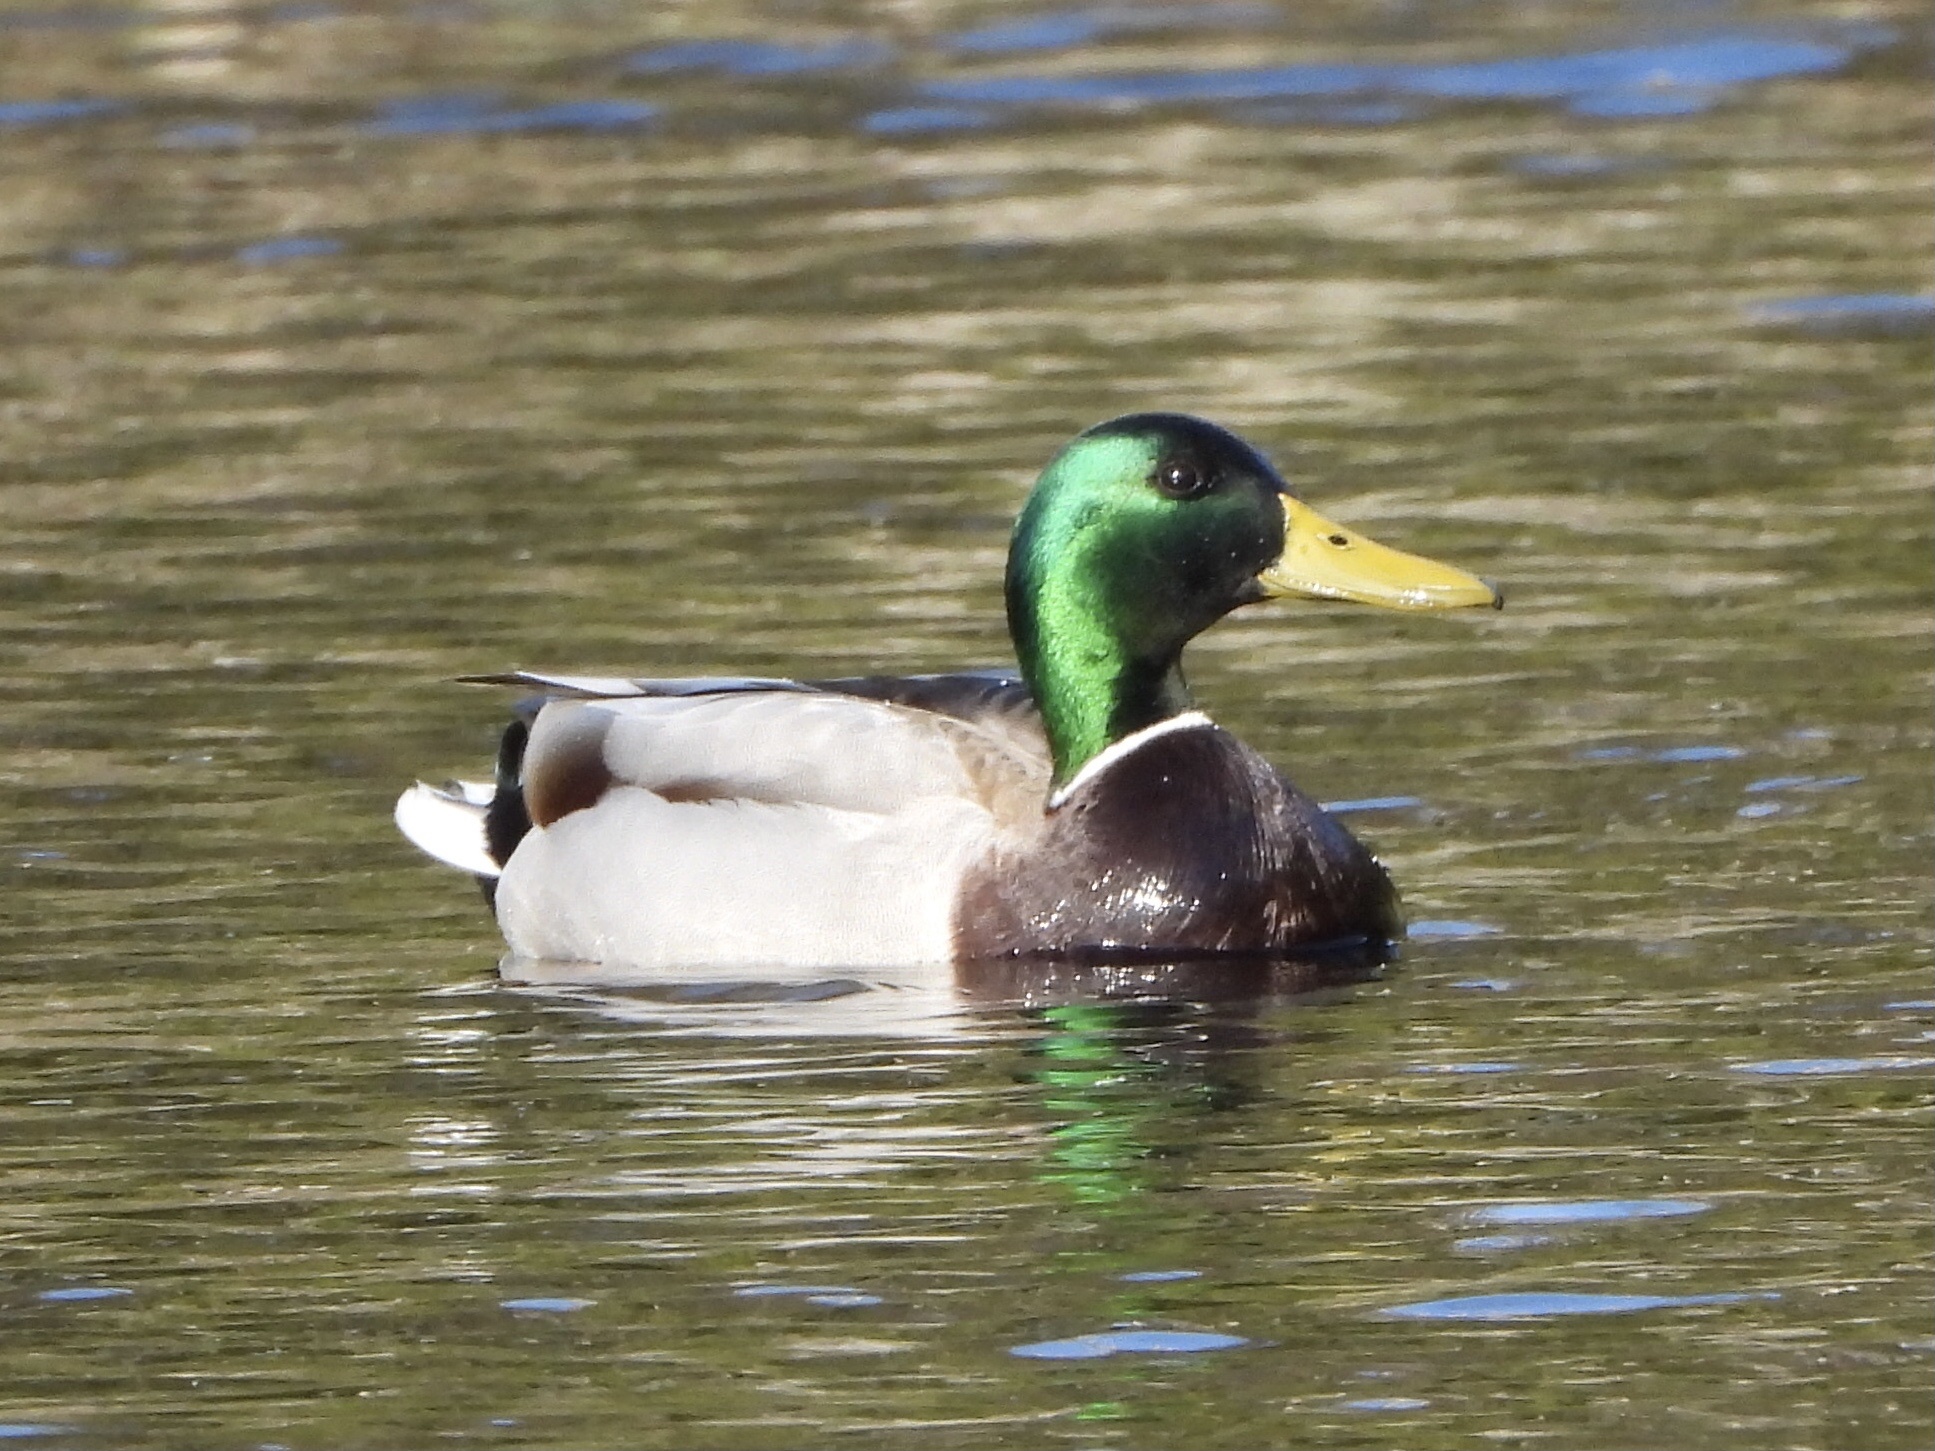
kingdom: Animalia
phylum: Chordata
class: Aves
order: Anseriformes
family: Anatidae
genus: Anas
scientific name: Anas platyrhynchos
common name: Mallard
